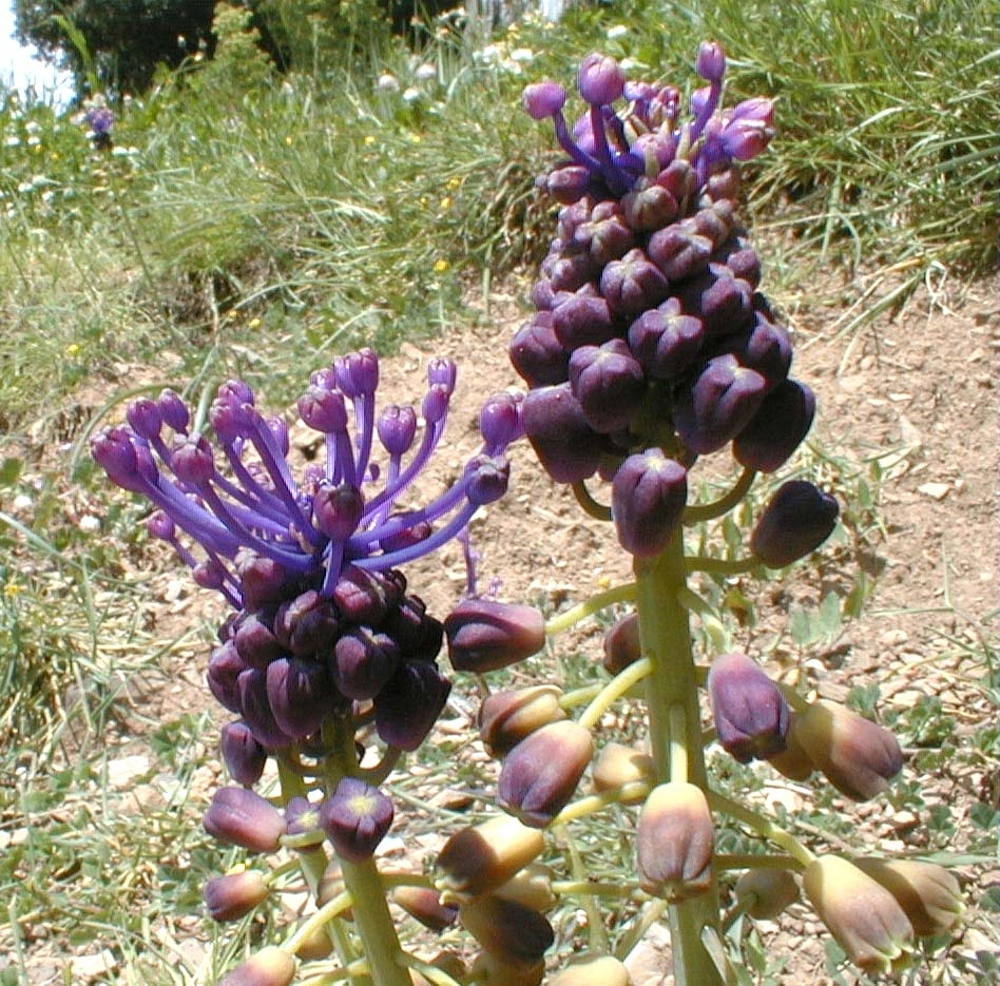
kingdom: Plantae
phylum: Tracheophyta
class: Liliopsida
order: Asparagales
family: Asparagaceae
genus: Muscari
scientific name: Muscari comosum
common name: Tassel hyacinth
